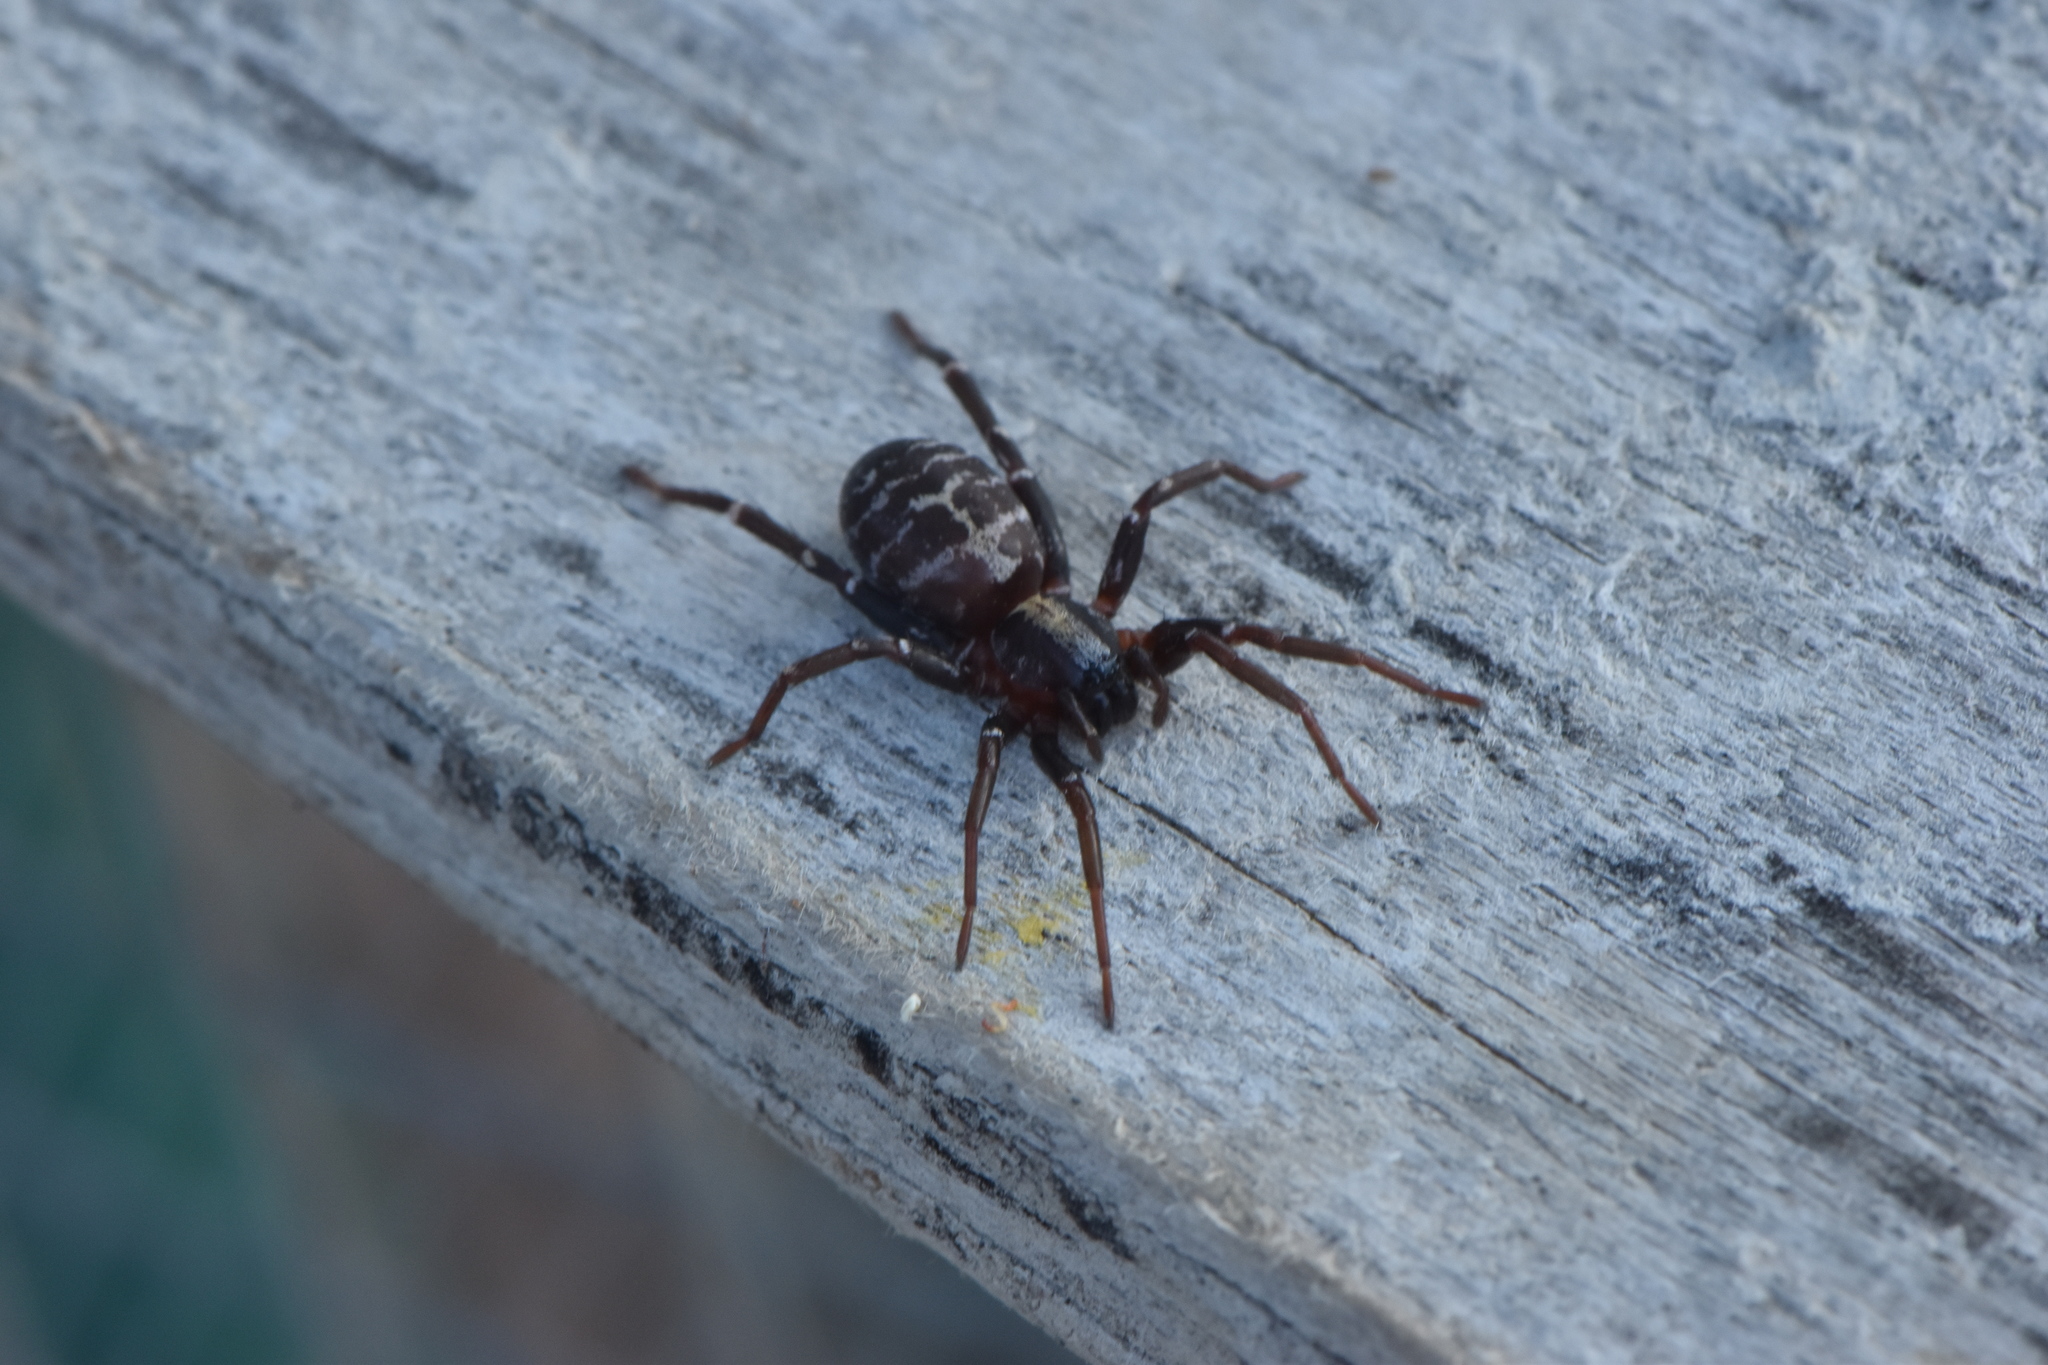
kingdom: Animalia
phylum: Arthropoda
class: Arachnida
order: Araneae
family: Corinnidae
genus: Castianeira
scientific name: Castianeira badia
